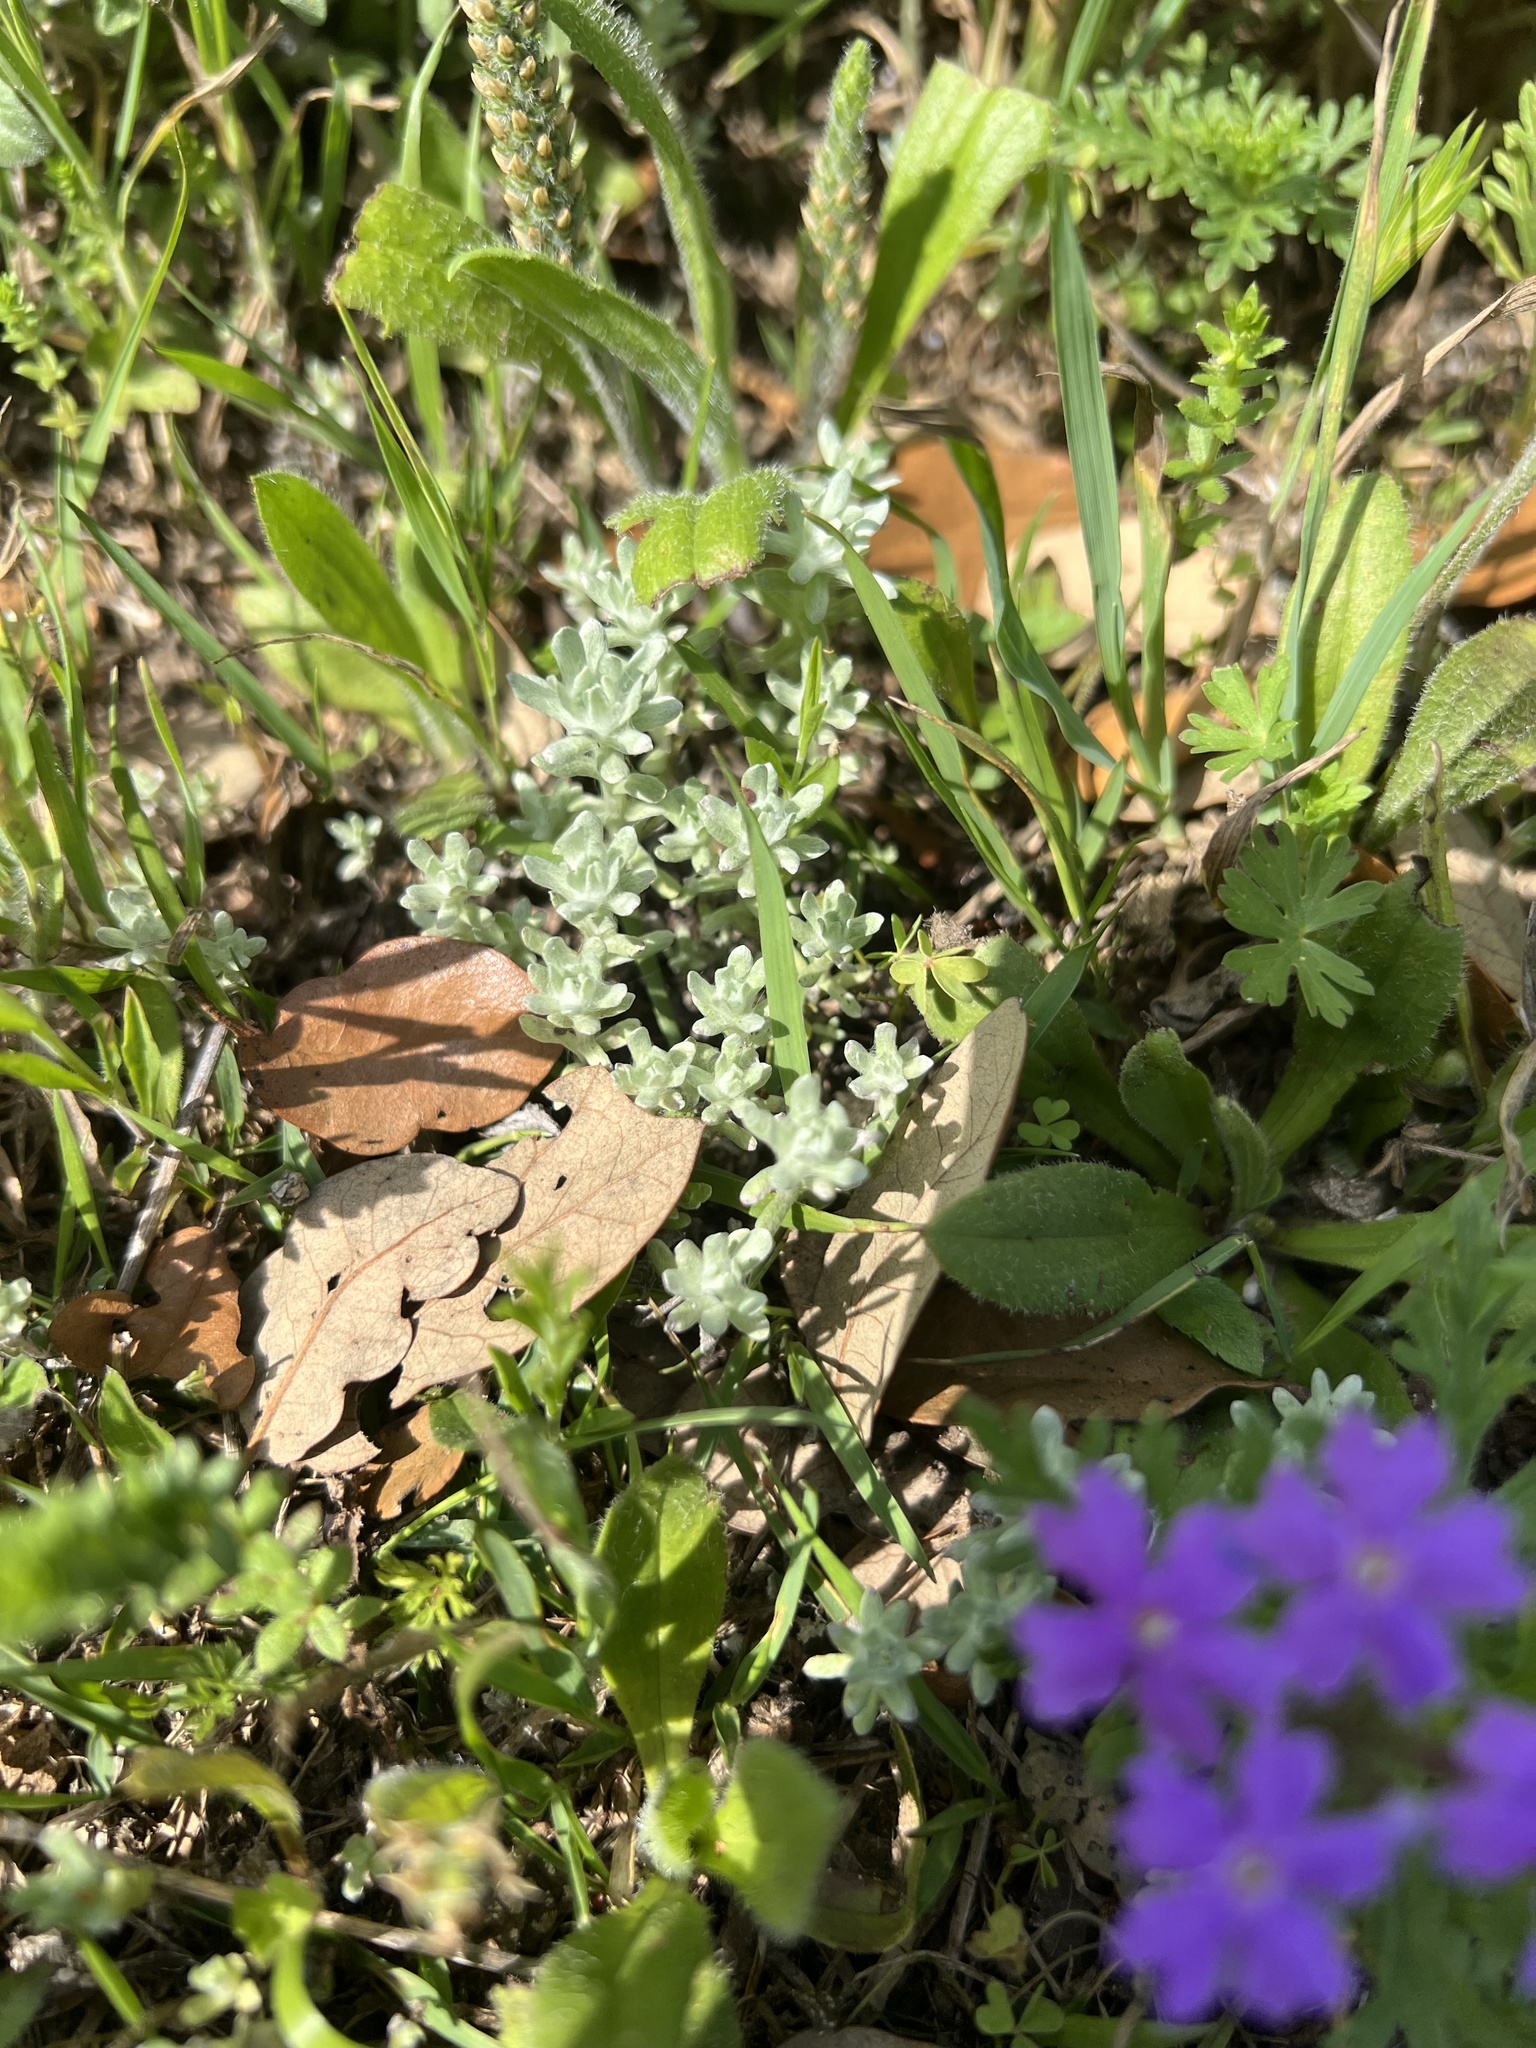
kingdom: Plantae
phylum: Tracheophyta
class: Magnoliopsida
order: Asterales
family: Asteraceae
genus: Diaperia
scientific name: Diaperia prolifera
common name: Big-head rabbit-tobacco
